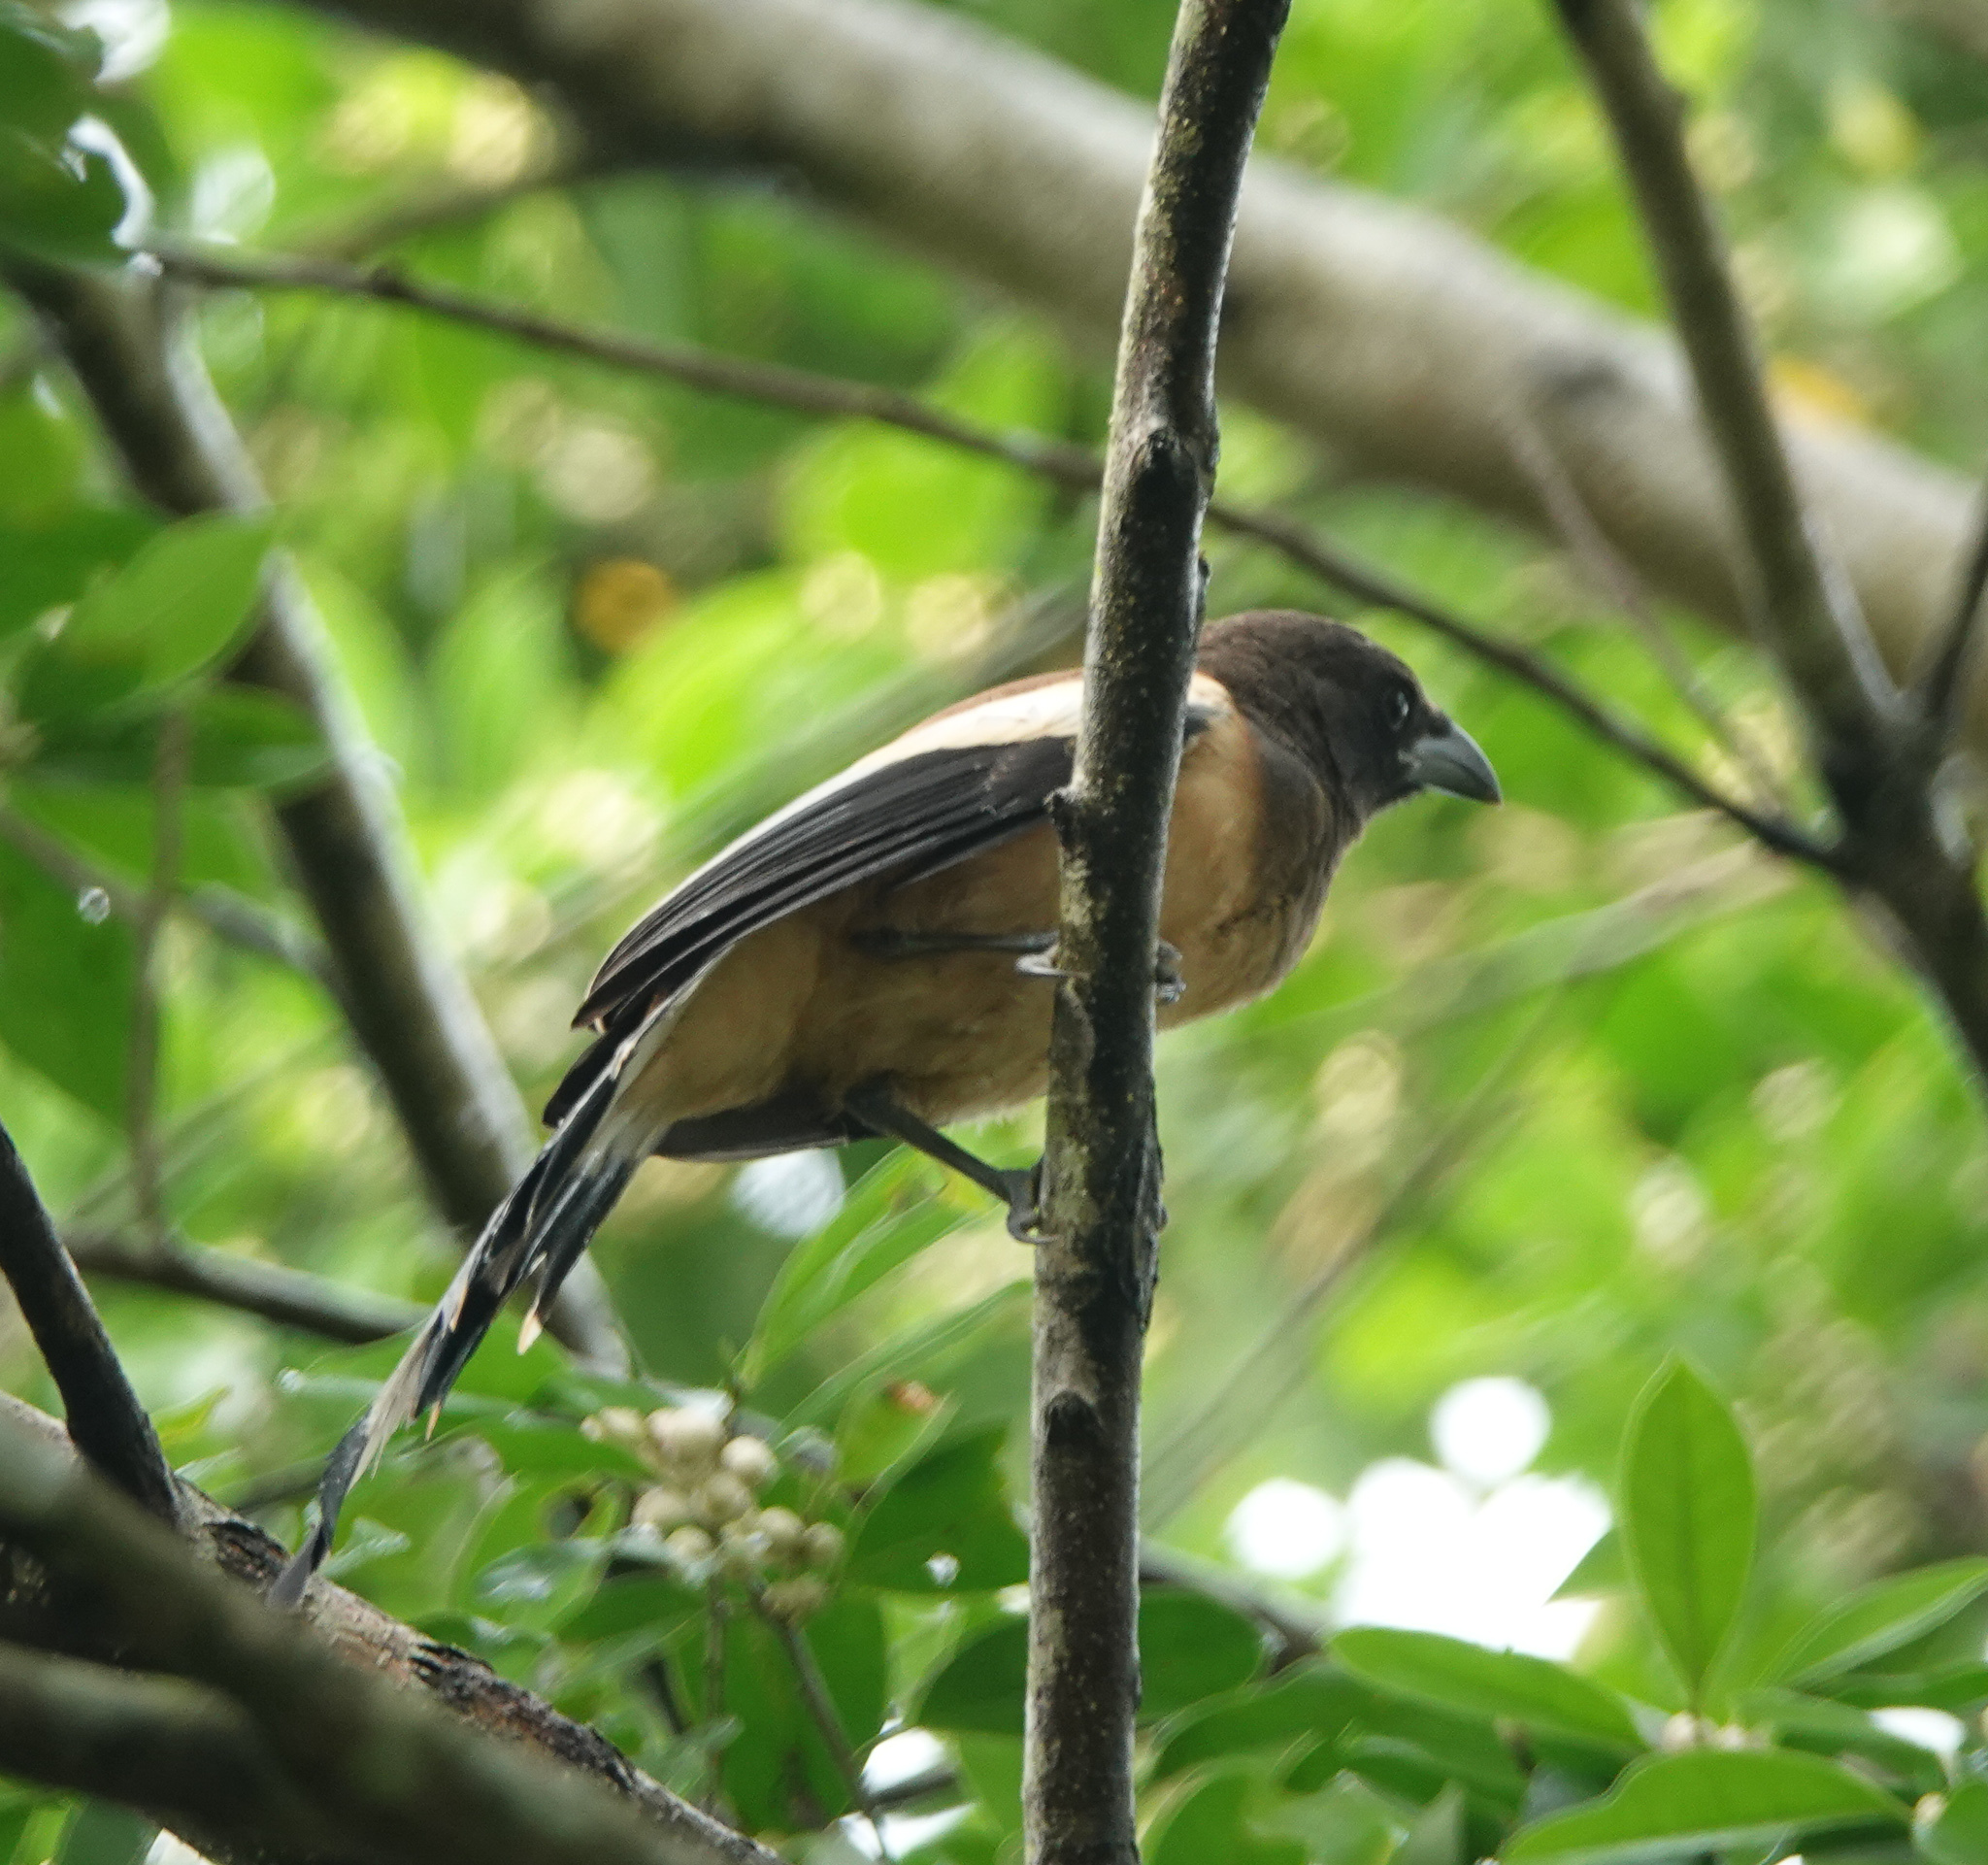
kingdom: Animalia
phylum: Chordata
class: Aves
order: Passeriformes
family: Corvidae
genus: Dendrocitta
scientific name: Dendrocitta vagabunda
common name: Rufous treepie
